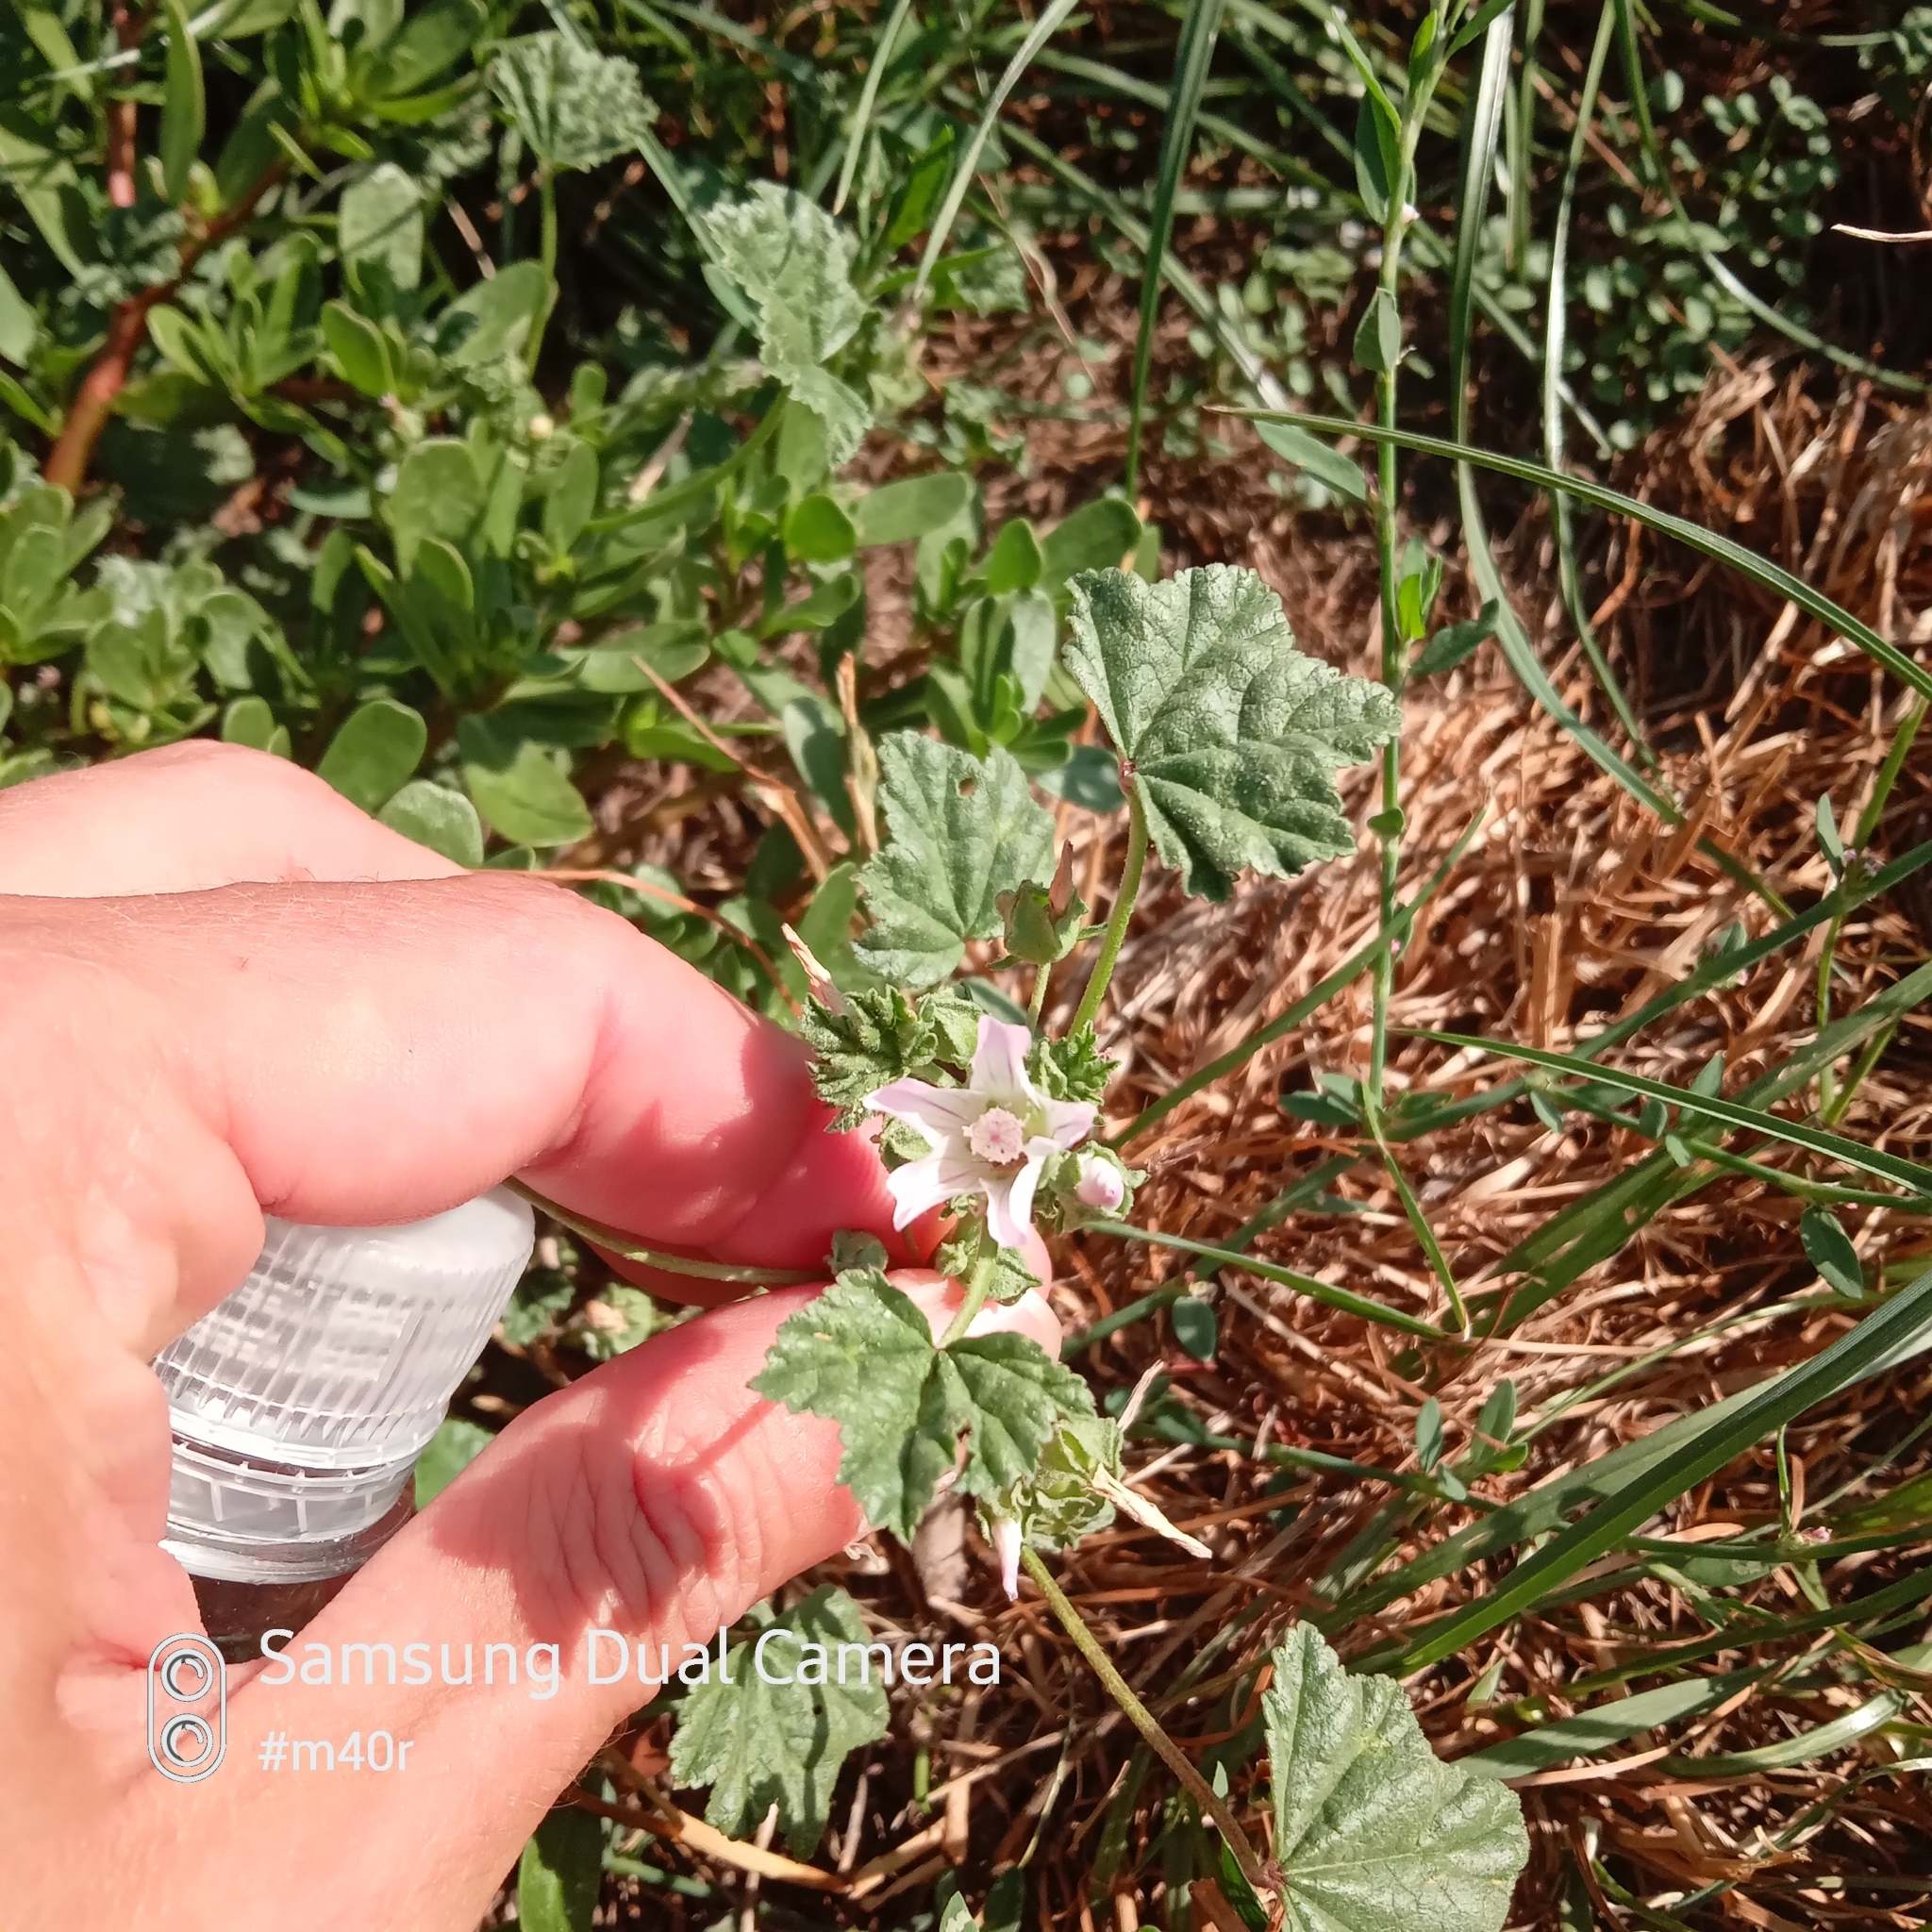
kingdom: Plantae
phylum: Tracheophyta
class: Magnoliopsida
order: Malvales
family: Malvaceae
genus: Malva
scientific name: Malva neglecta
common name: Common mallow
